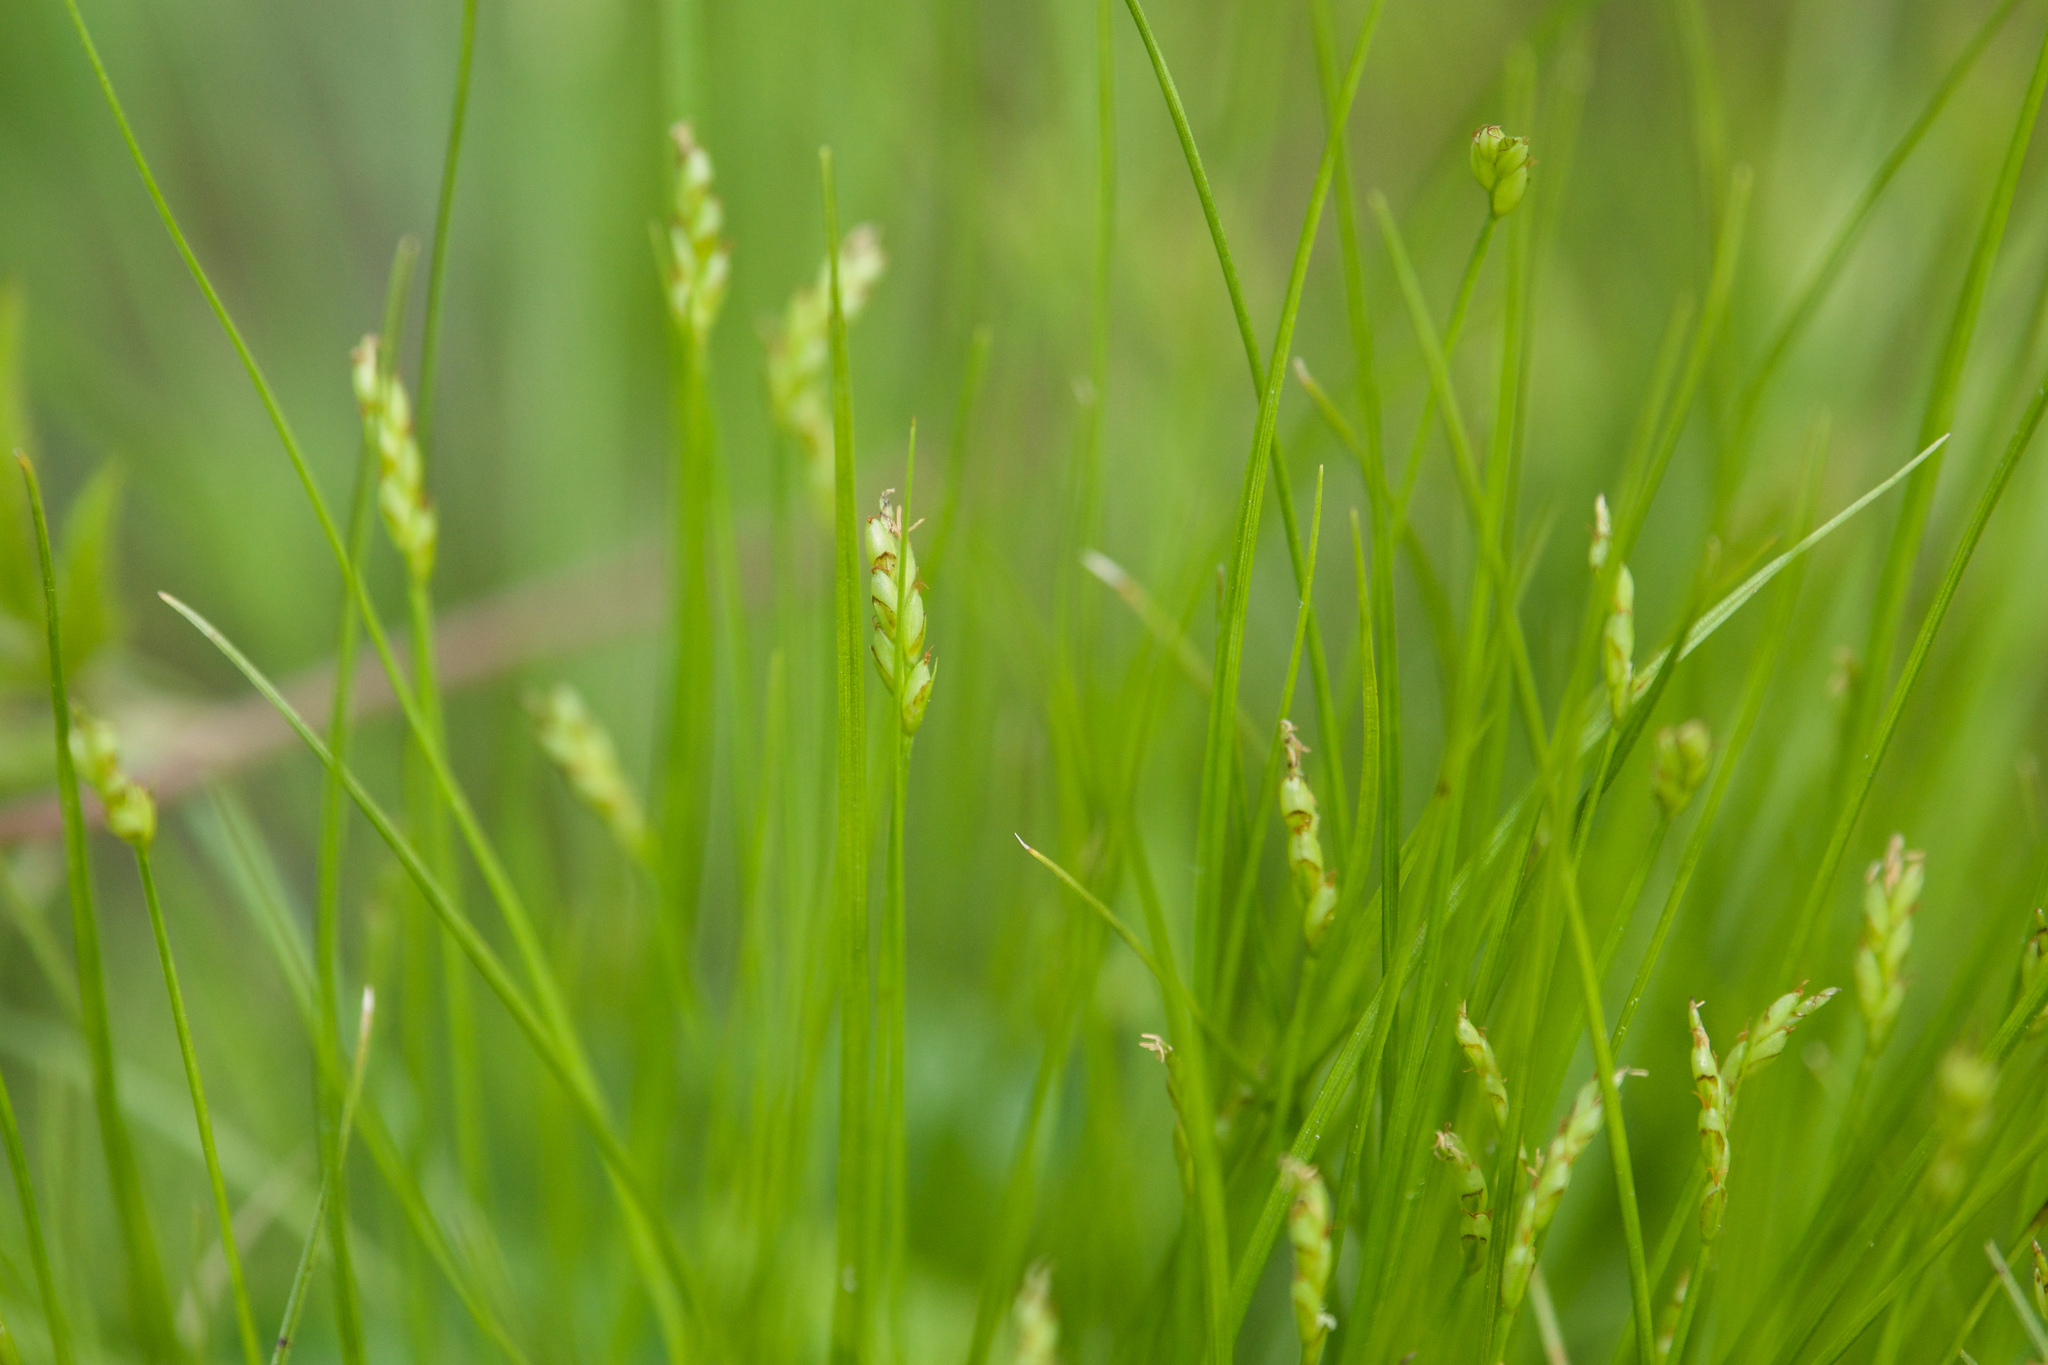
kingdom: Plantae
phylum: Tracheophyta
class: Liliopsida
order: Poales
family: Cyperaceae
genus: Carex
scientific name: Carex leptalea
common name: Bristly-stalked sedge
